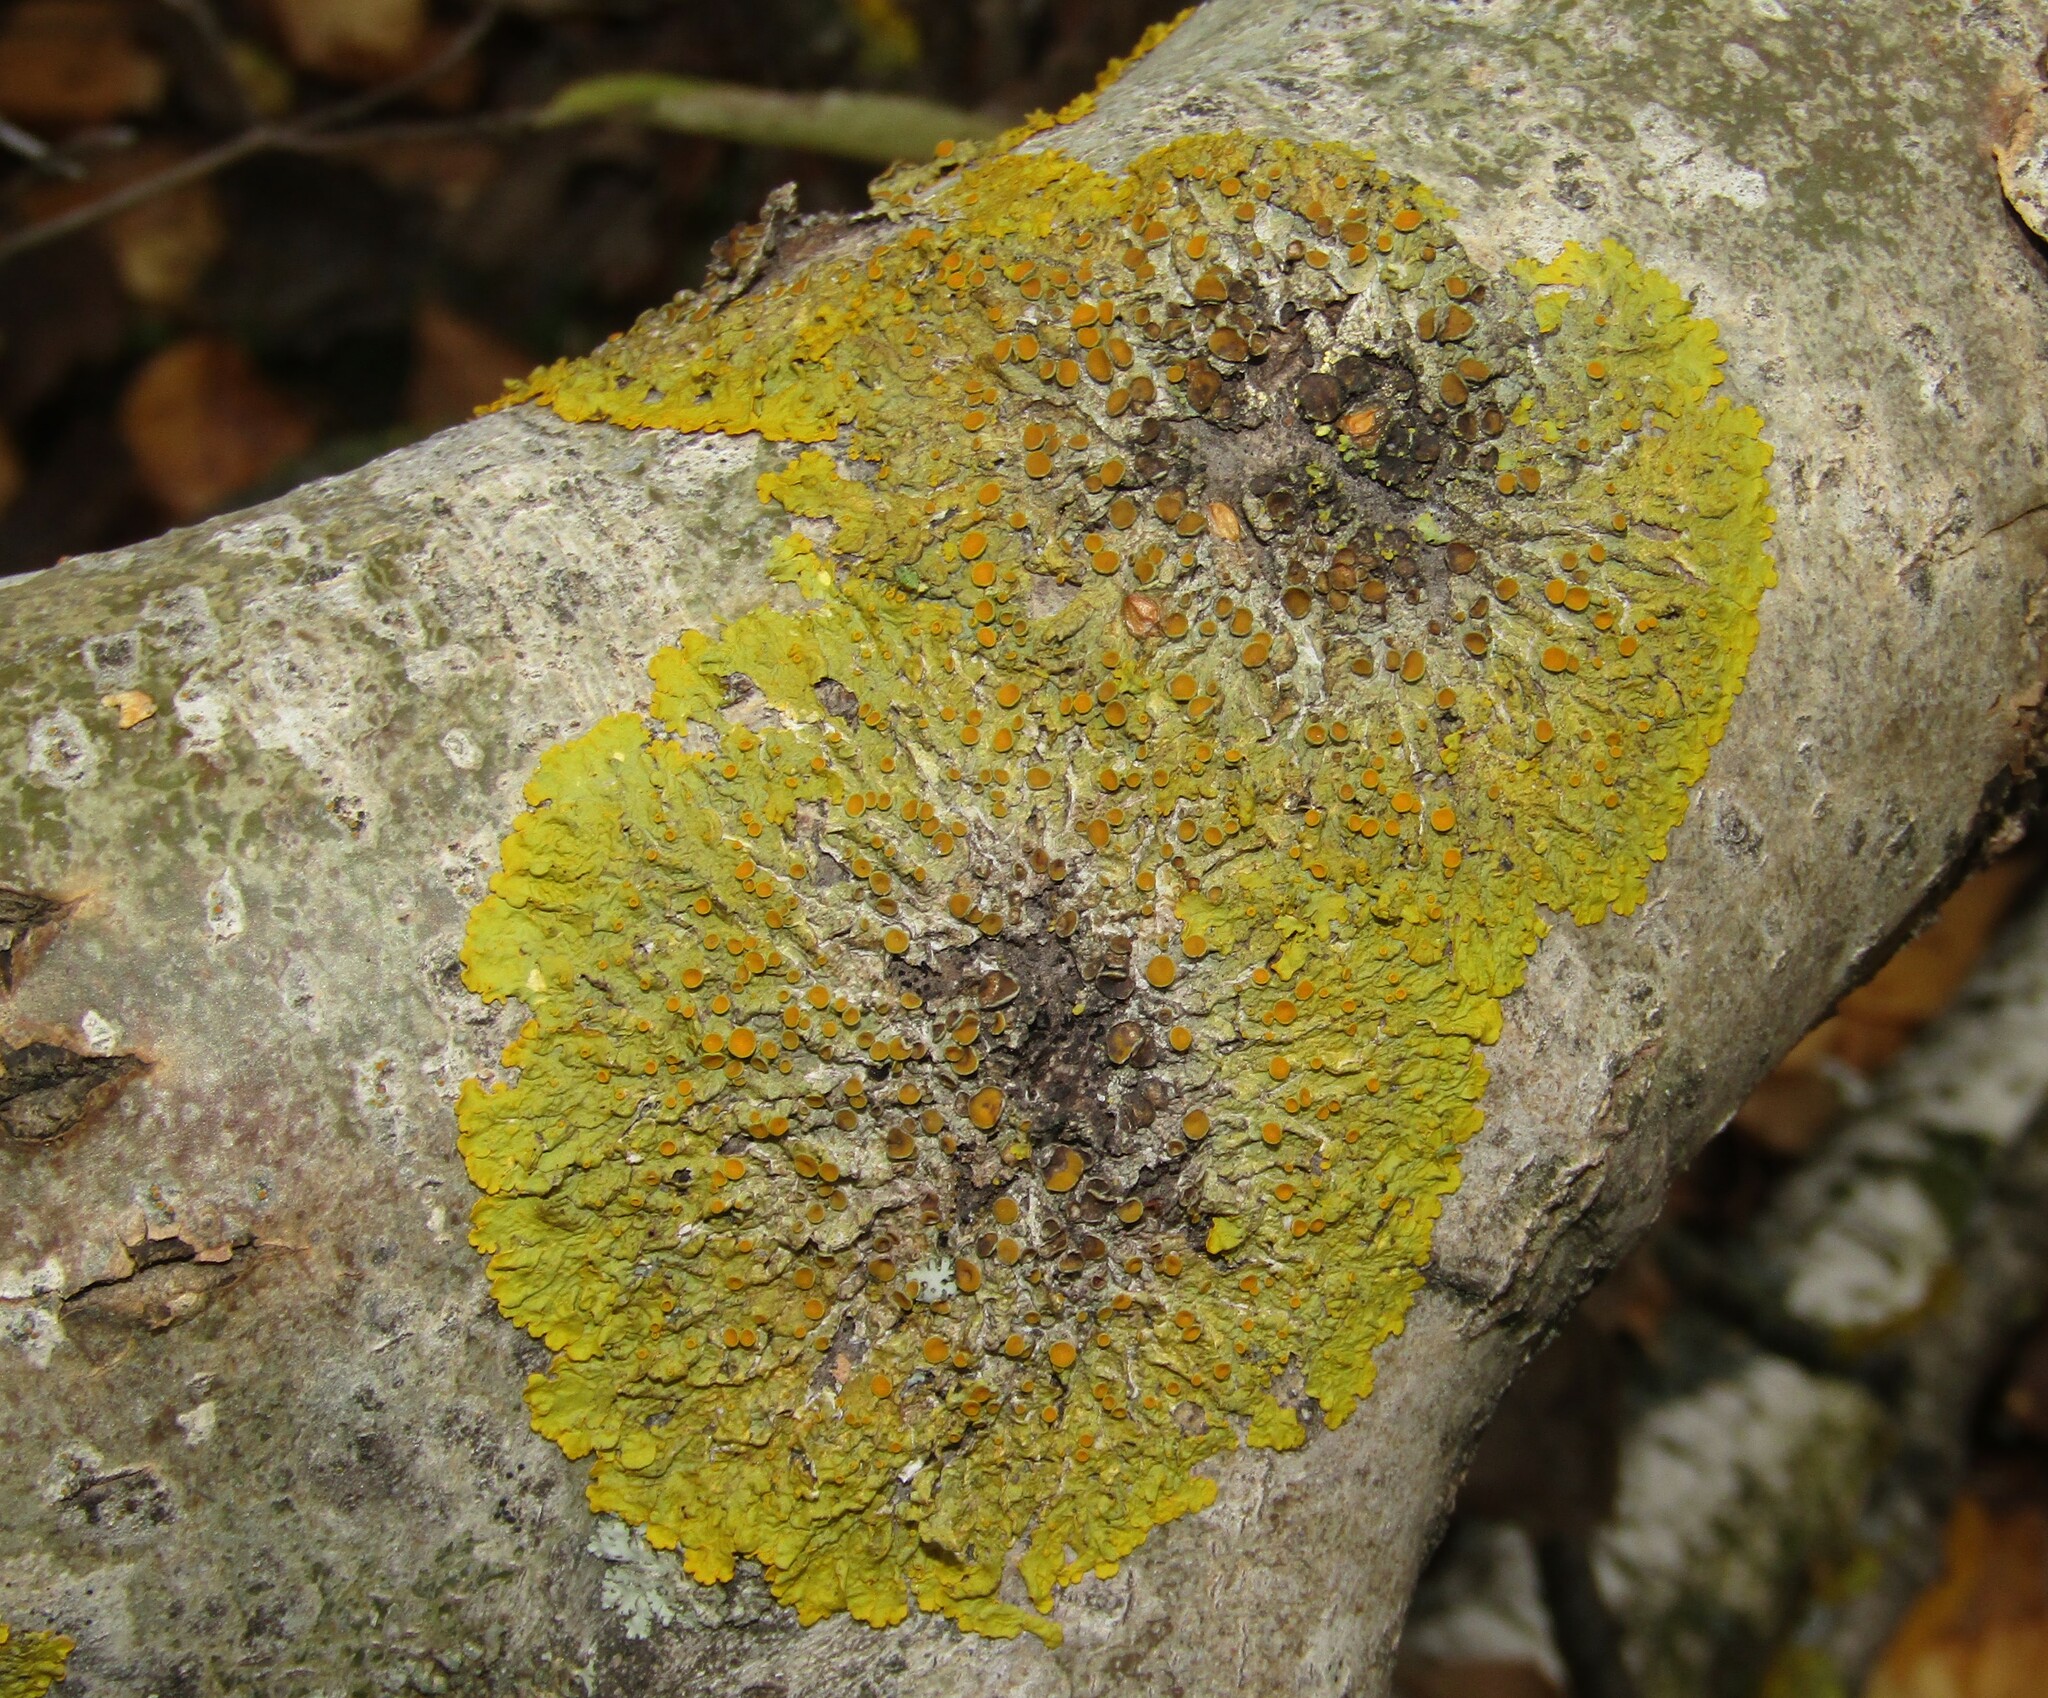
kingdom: Fungi
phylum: Ascomycota
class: Lecanoromycetes
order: Teloschistales
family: Teloschistaceae
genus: Xanthoria
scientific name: Xanthoria parietina
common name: Common orange lichen
